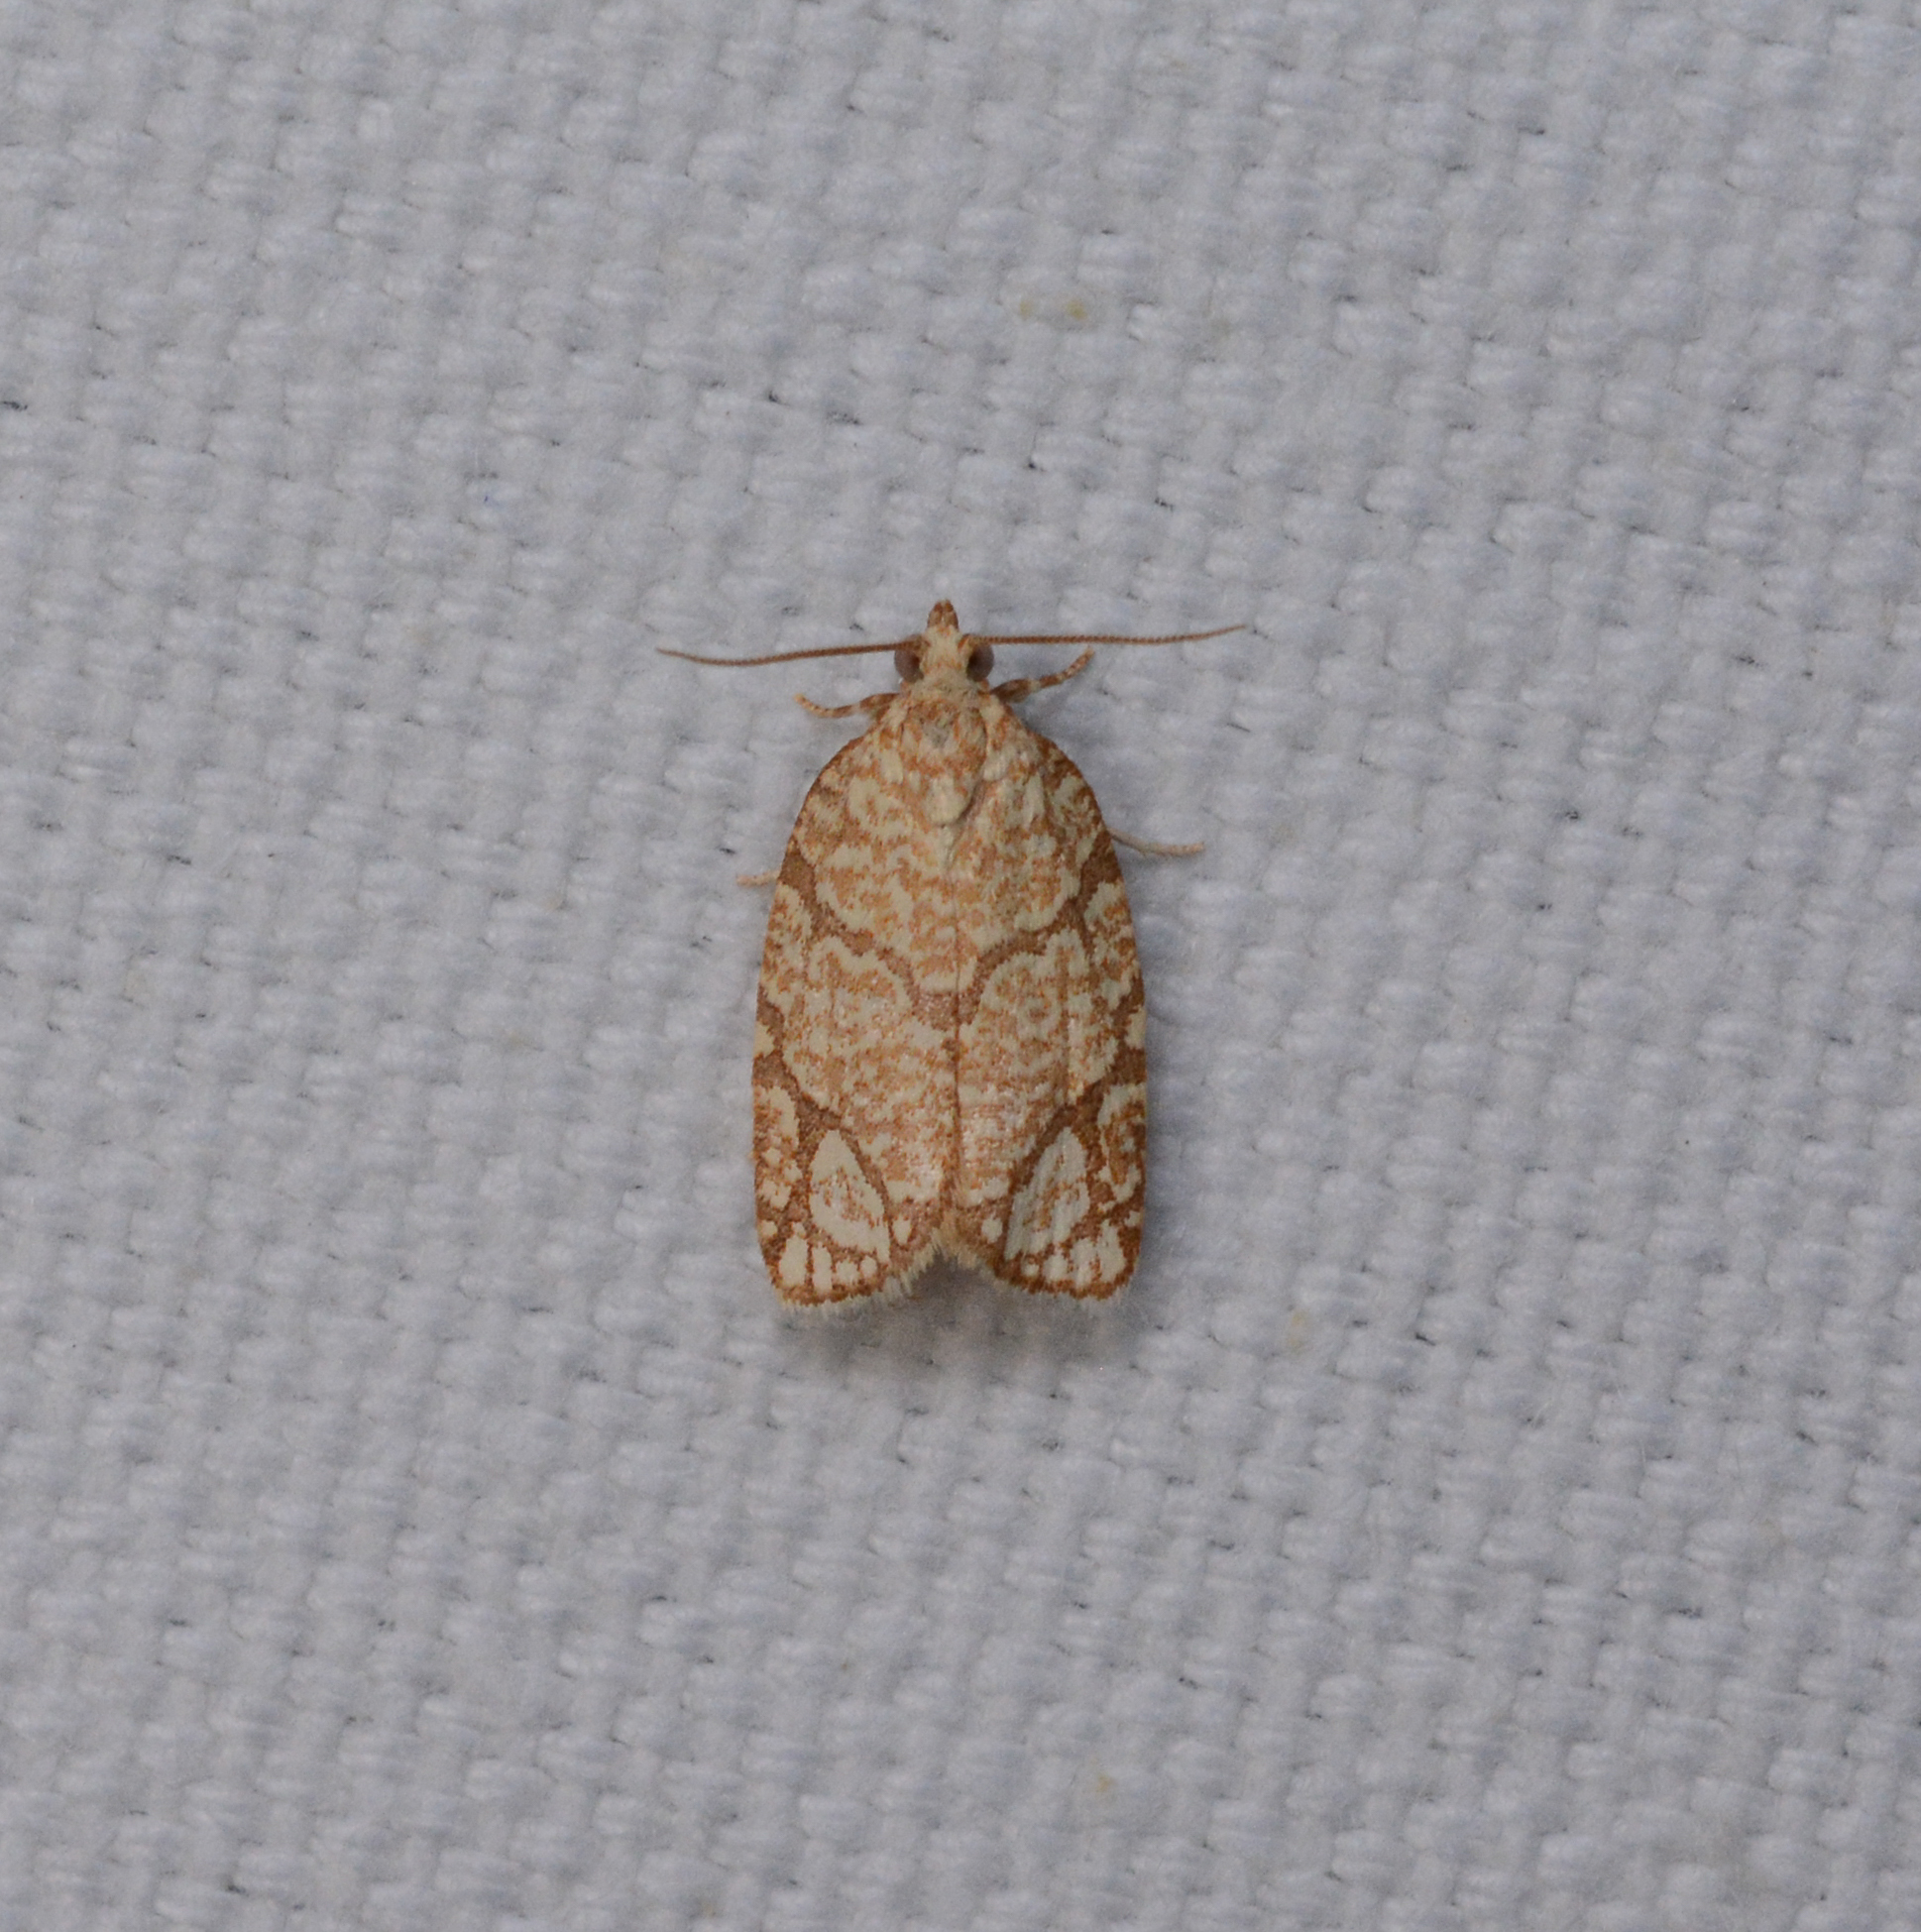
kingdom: Animalia
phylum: Arthropoda
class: Insecta
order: Lepidoptera
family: Tortricidae
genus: Argyrotaenia
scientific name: Argyrotaenia quercifoliana
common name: Yellow-winged oak leafroller moth
